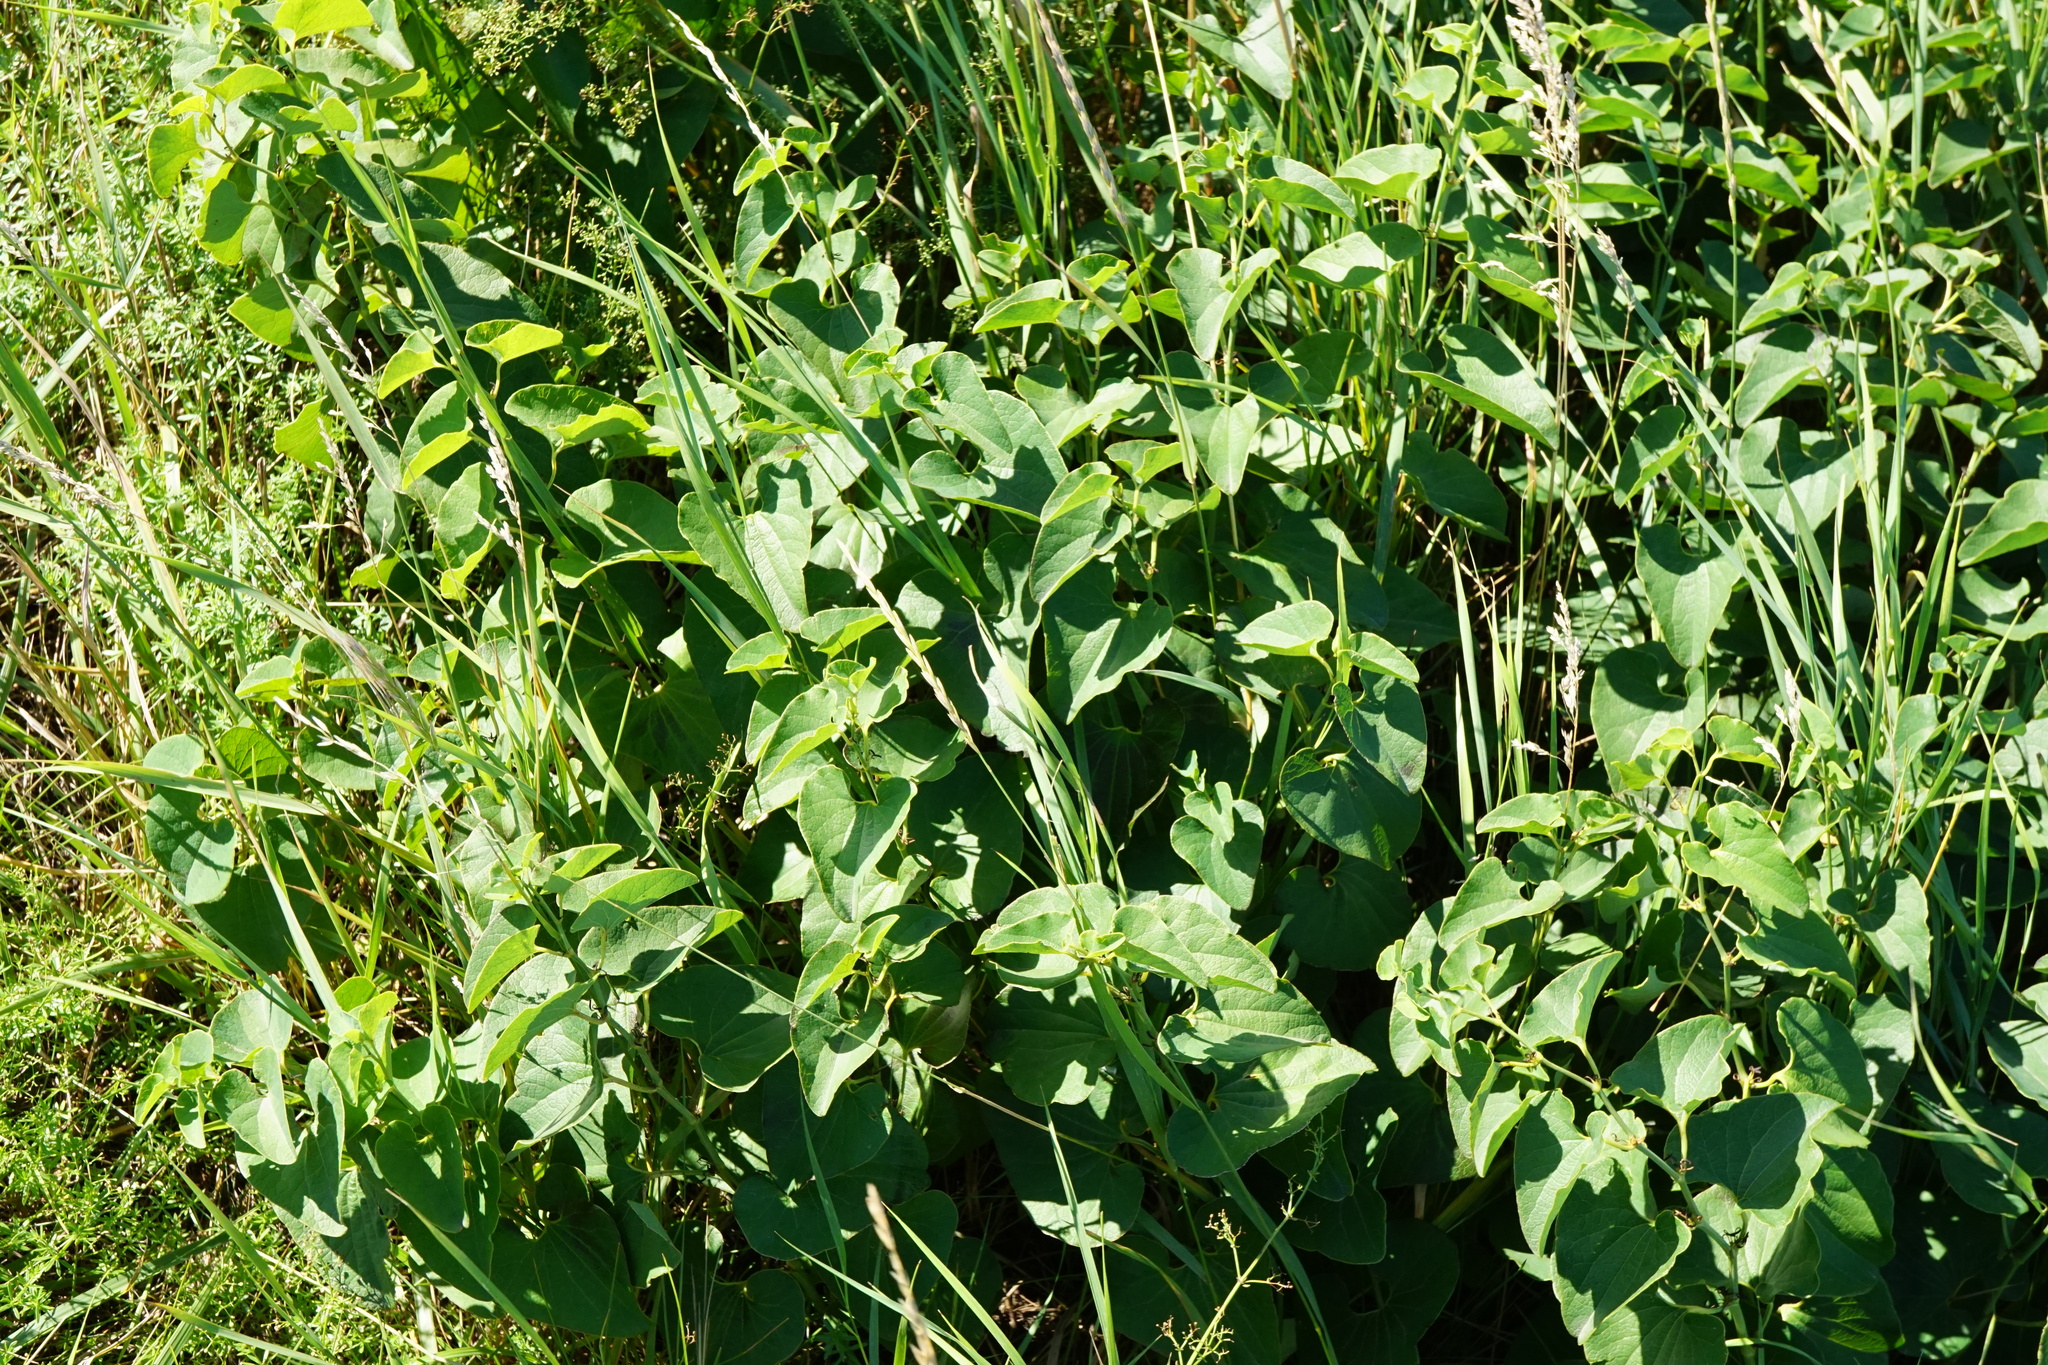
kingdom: Plantae
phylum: Tracheophyta
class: Magnoliopsida
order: Piperales
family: Aristolochiaceae
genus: Aristolochia
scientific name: Aristolochia clematitis
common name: Birthwort
